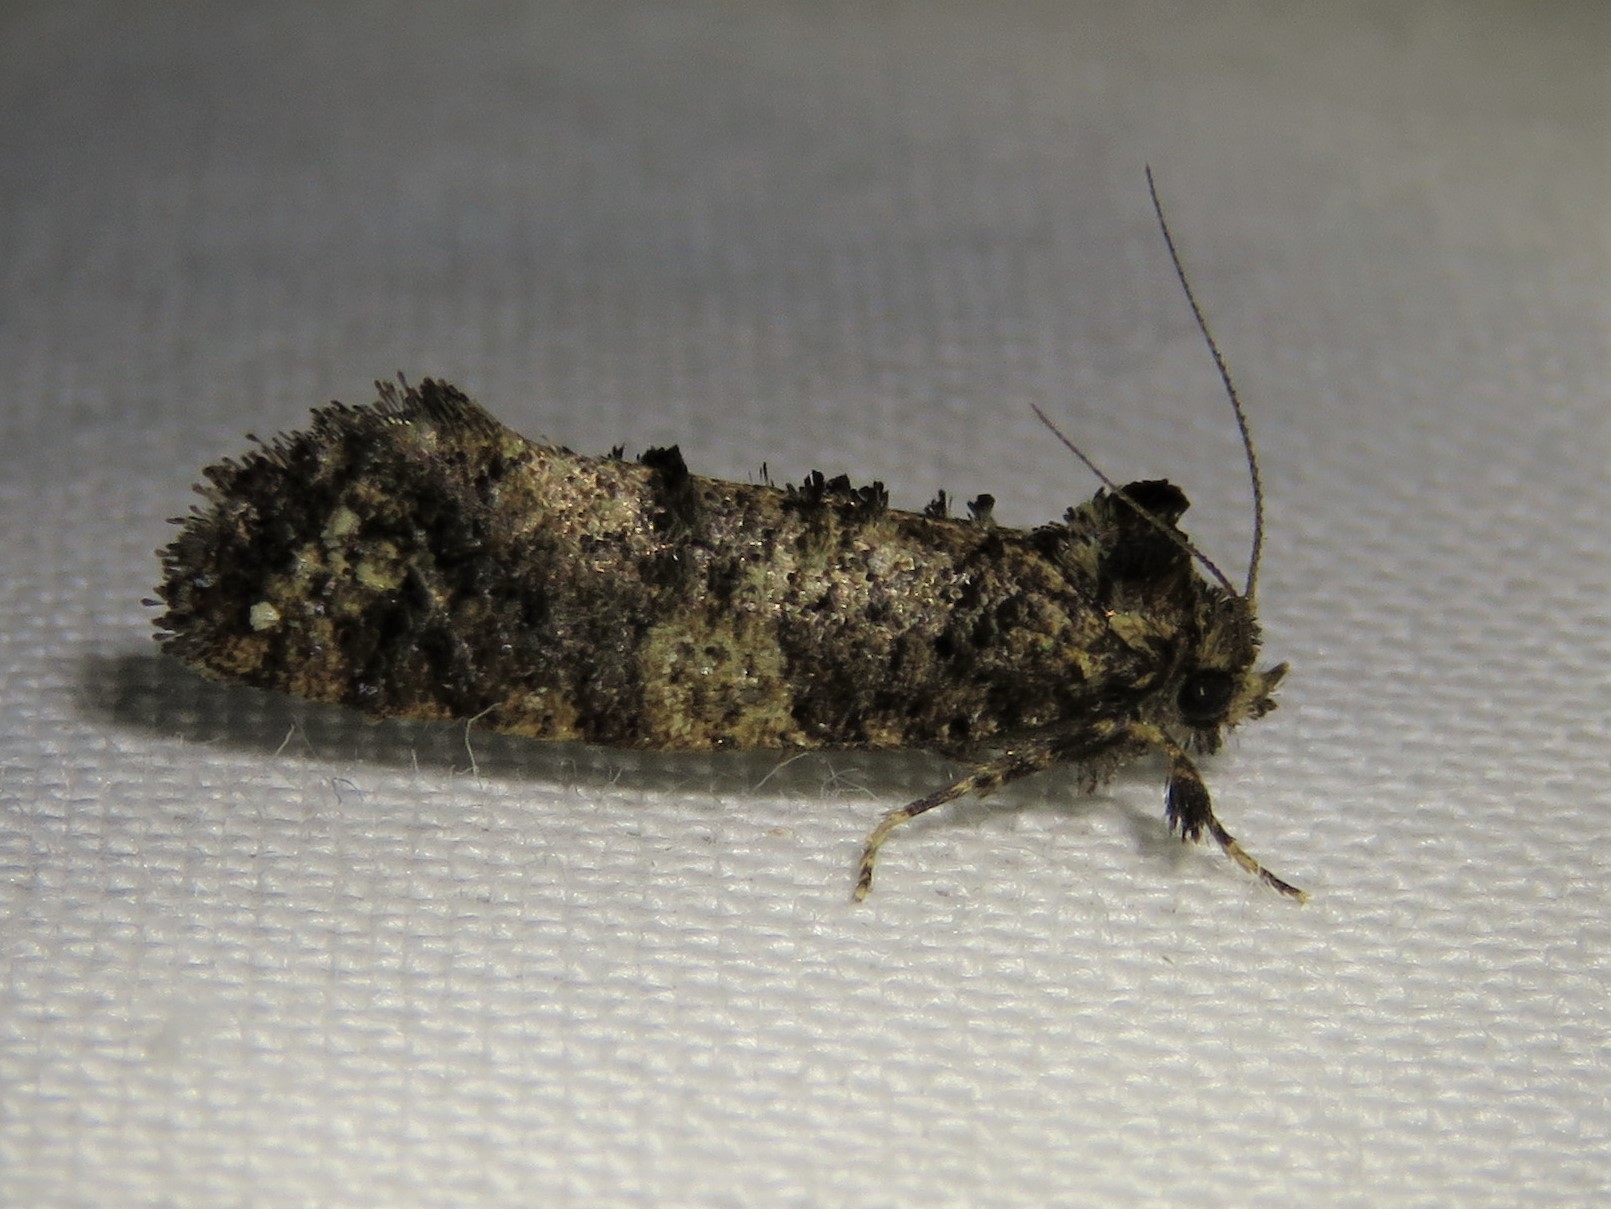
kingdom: Animalia
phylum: Arthropoda
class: Insecta
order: Lepidoptera
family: Tineidae
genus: Acrolophus
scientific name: Acrolophus cressoni
